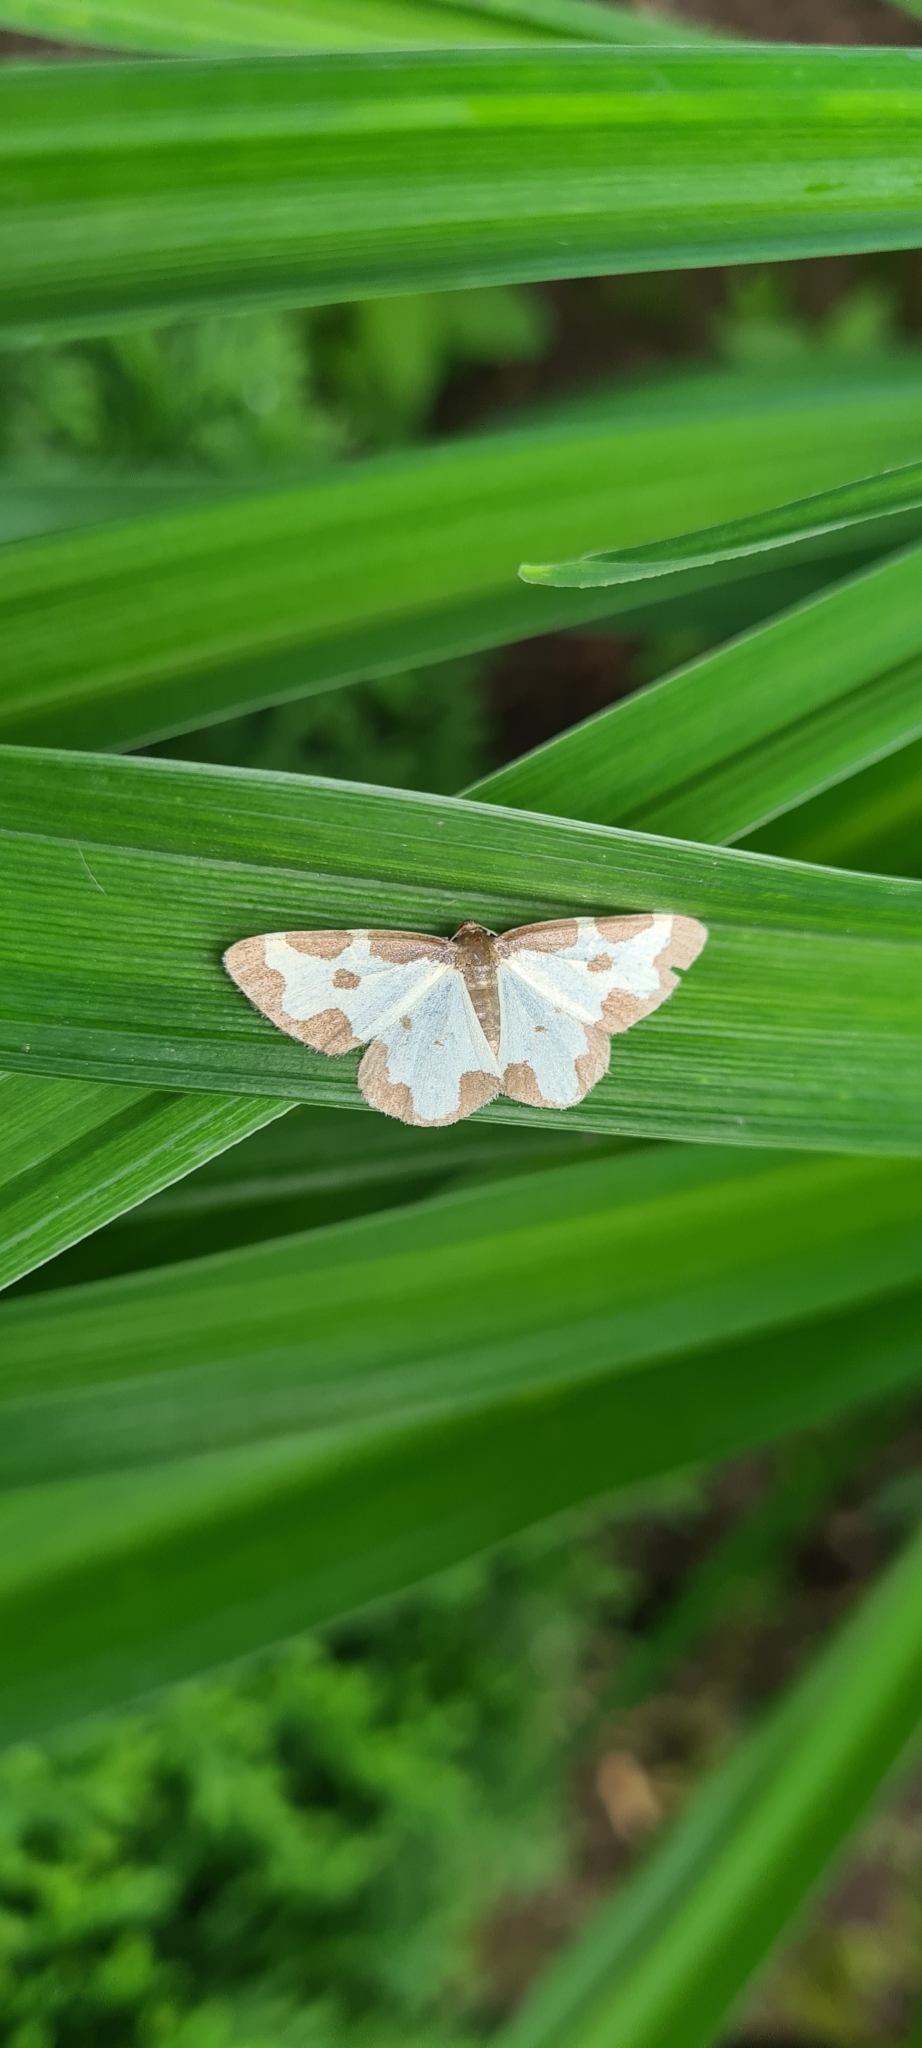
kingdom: Animalia
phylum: Arthropoda
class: Insecta
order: Lepidoptera
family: Geometridae
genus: Lomaspilis
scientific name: Lomaspilis marginata
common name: Clouded border
